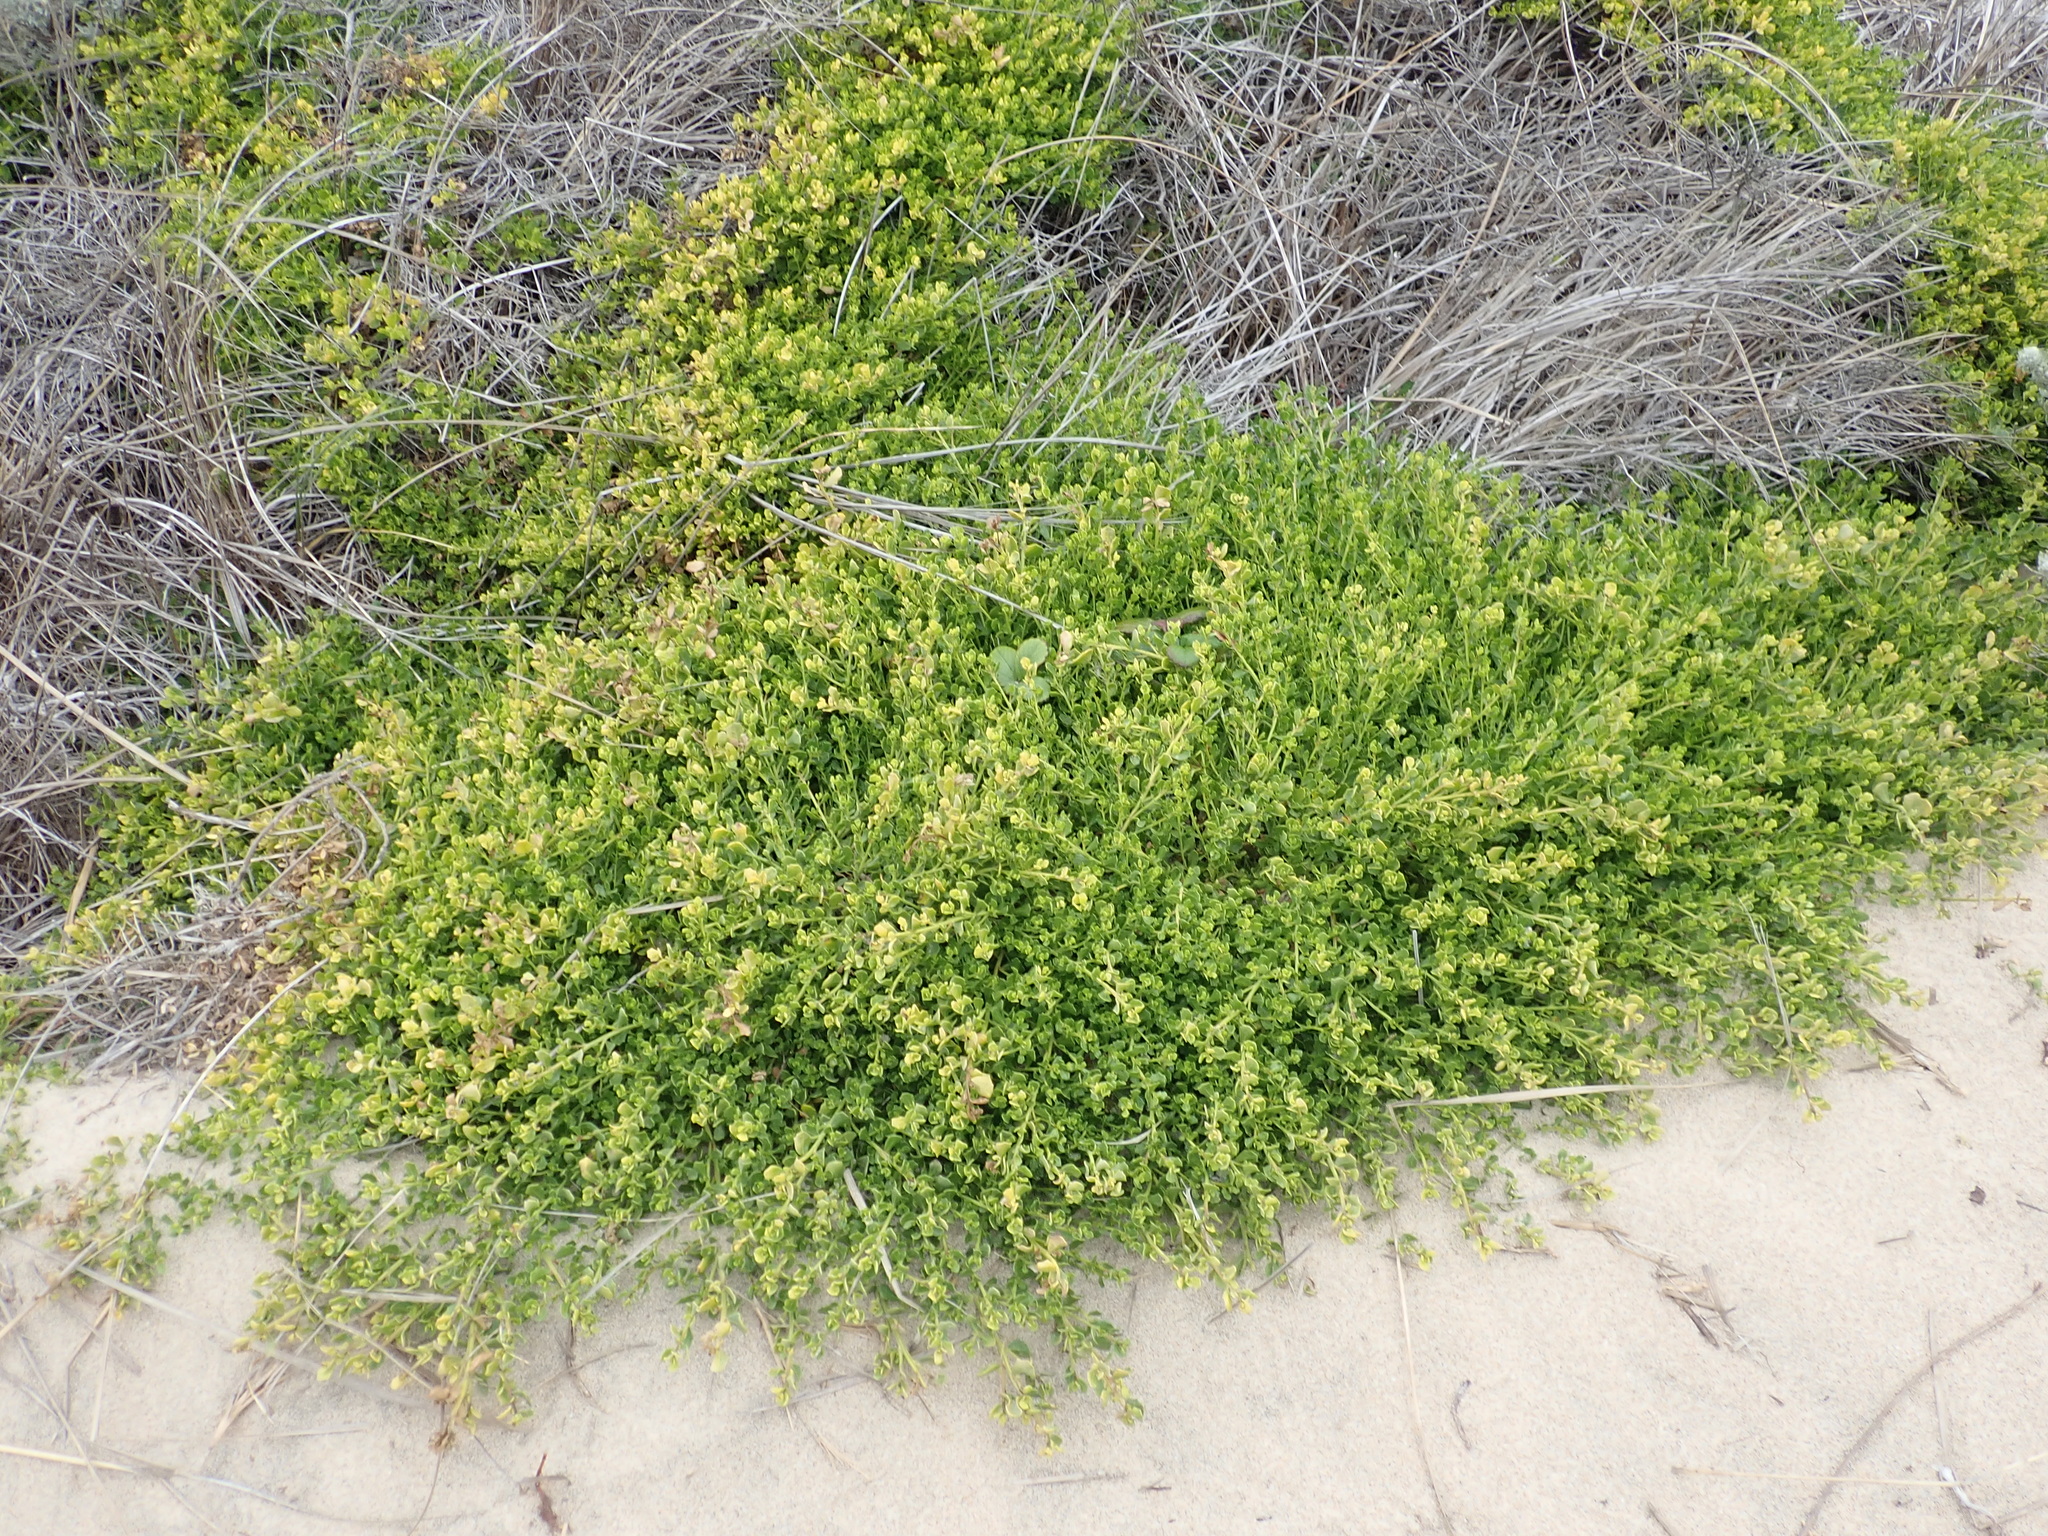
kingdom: Plantae
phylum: Tracheophyta
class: Magnoliopsida
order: Asterales
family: Asteraceae
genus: Baccharis
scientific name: Baccharis pilularis
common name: Coyotebrush
